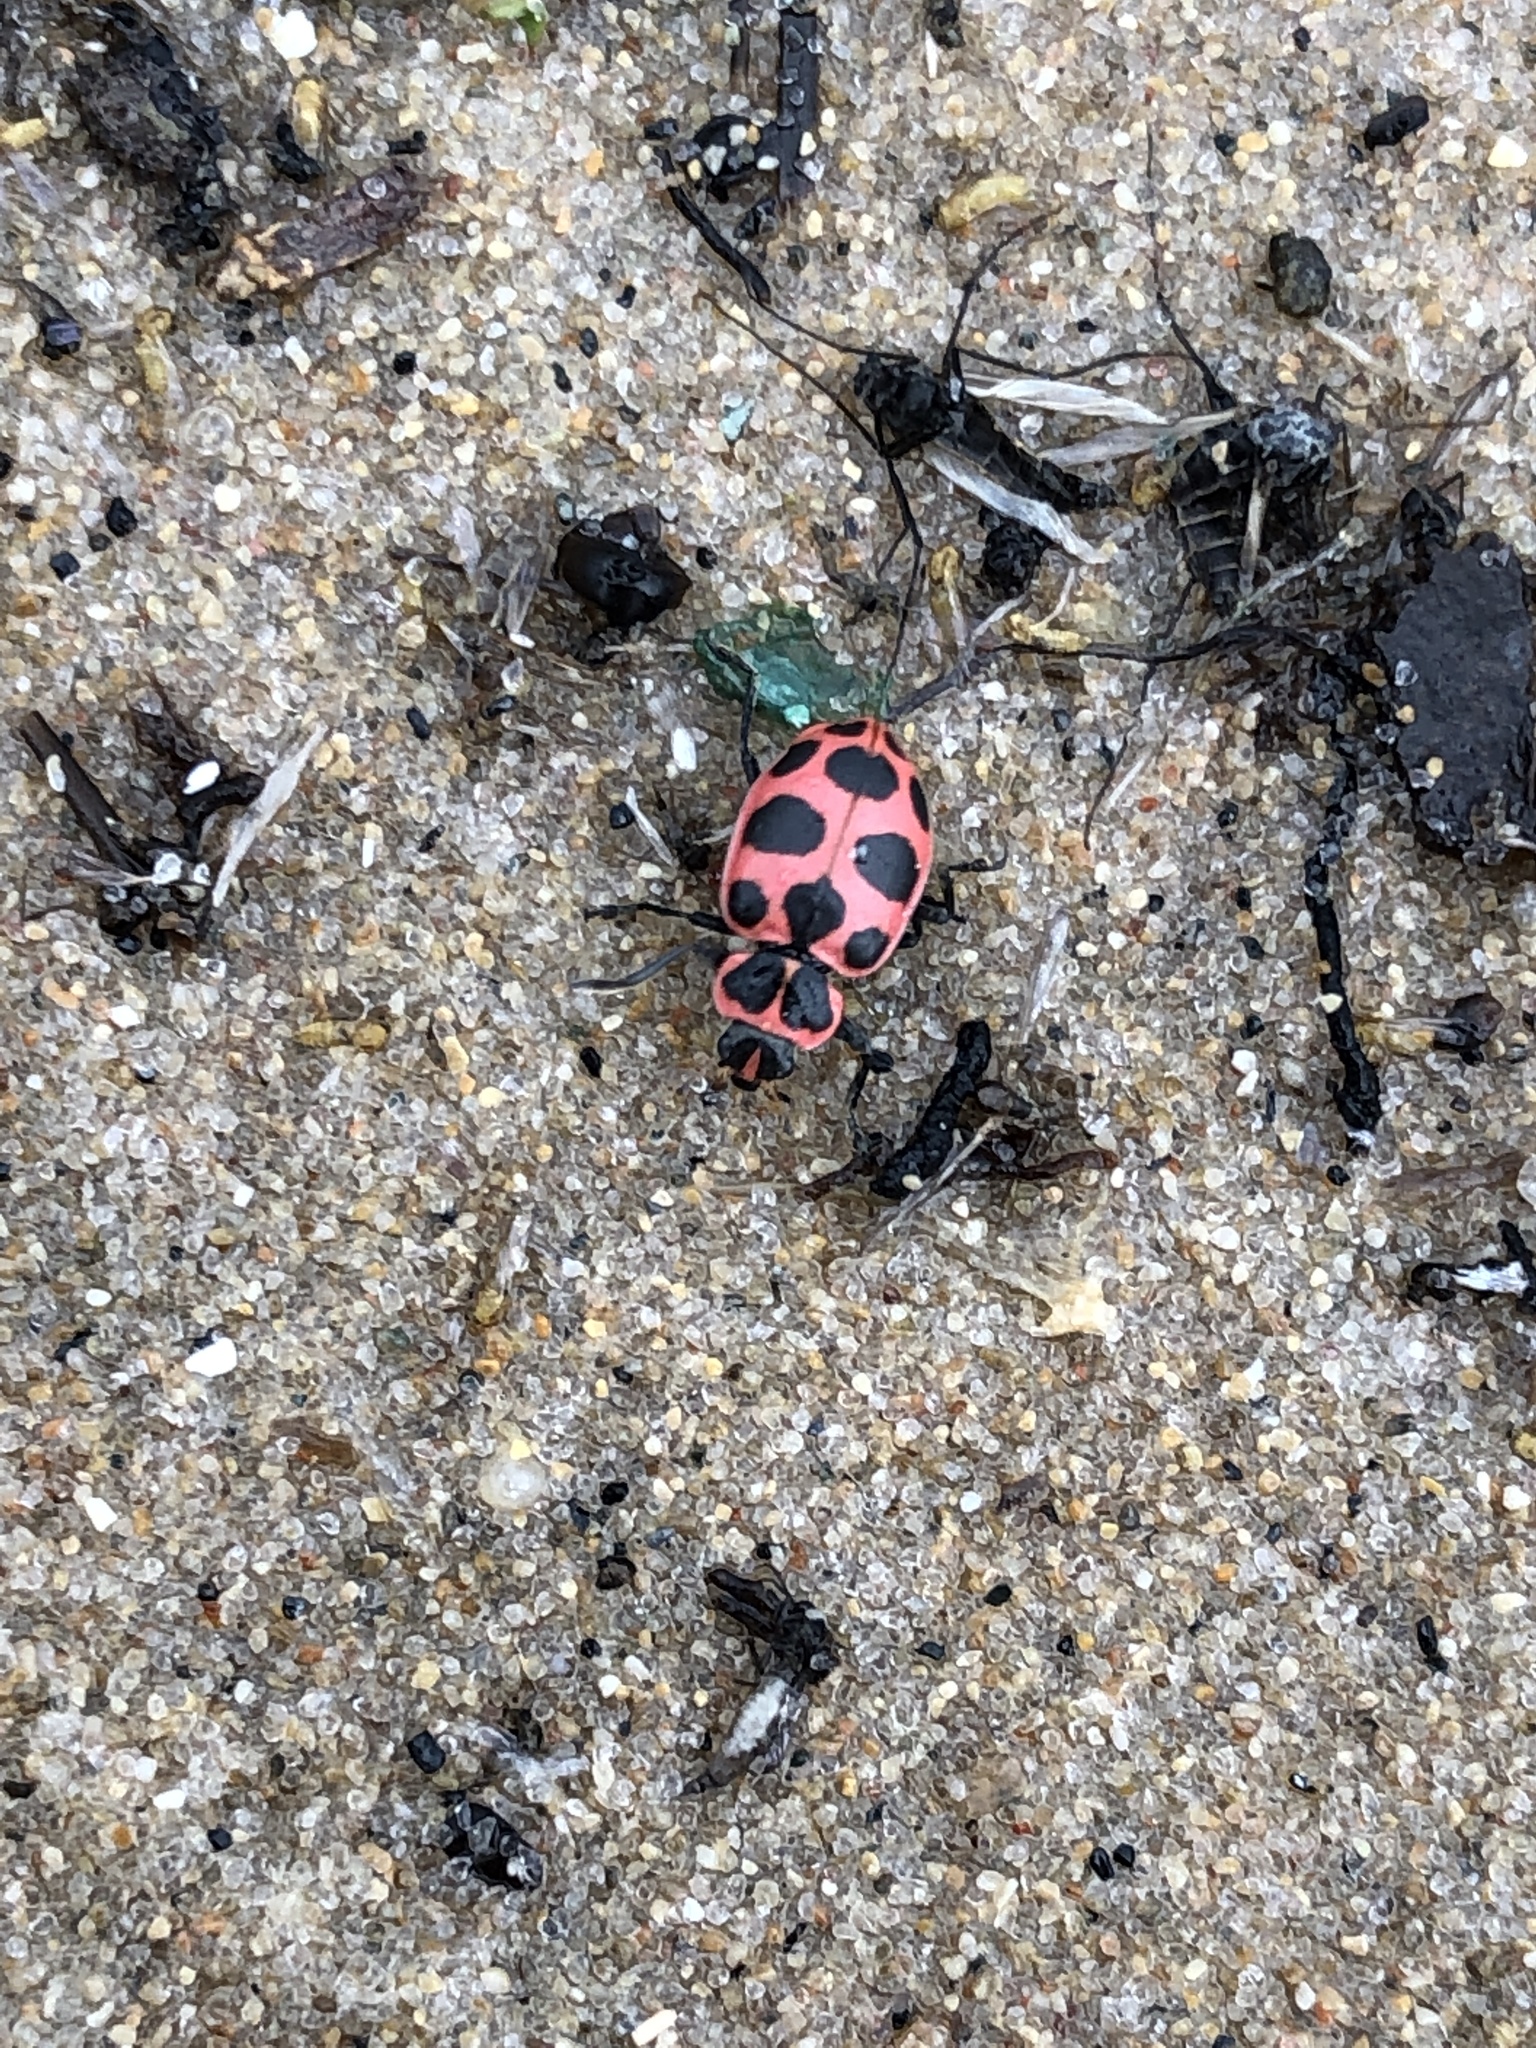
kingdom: Animalia
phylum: Arthropoda
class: Insecta
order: Coleoptera
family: Coccinellidae
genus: Coleomegilla
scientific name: Coleomegilla maculata
